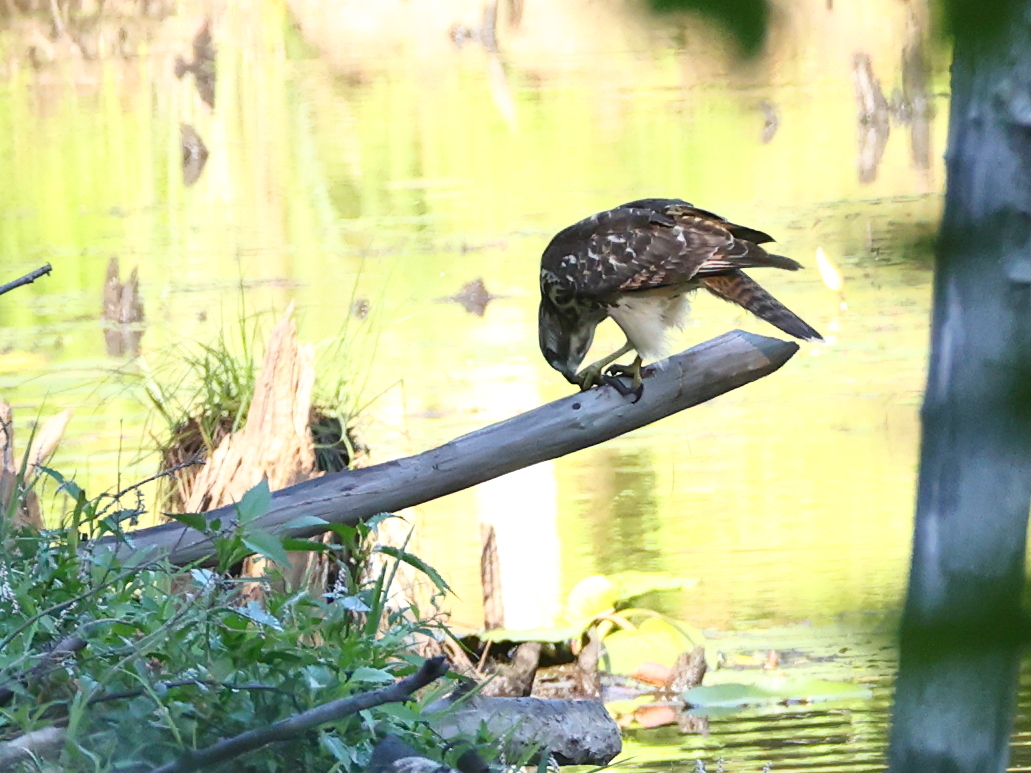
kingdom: Animalia
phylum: Chordata
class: Aves
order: Accipitriformes
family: Accipitridae
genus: Buteo
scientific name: Buteo lineatus
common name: Red-shouldered hawk
